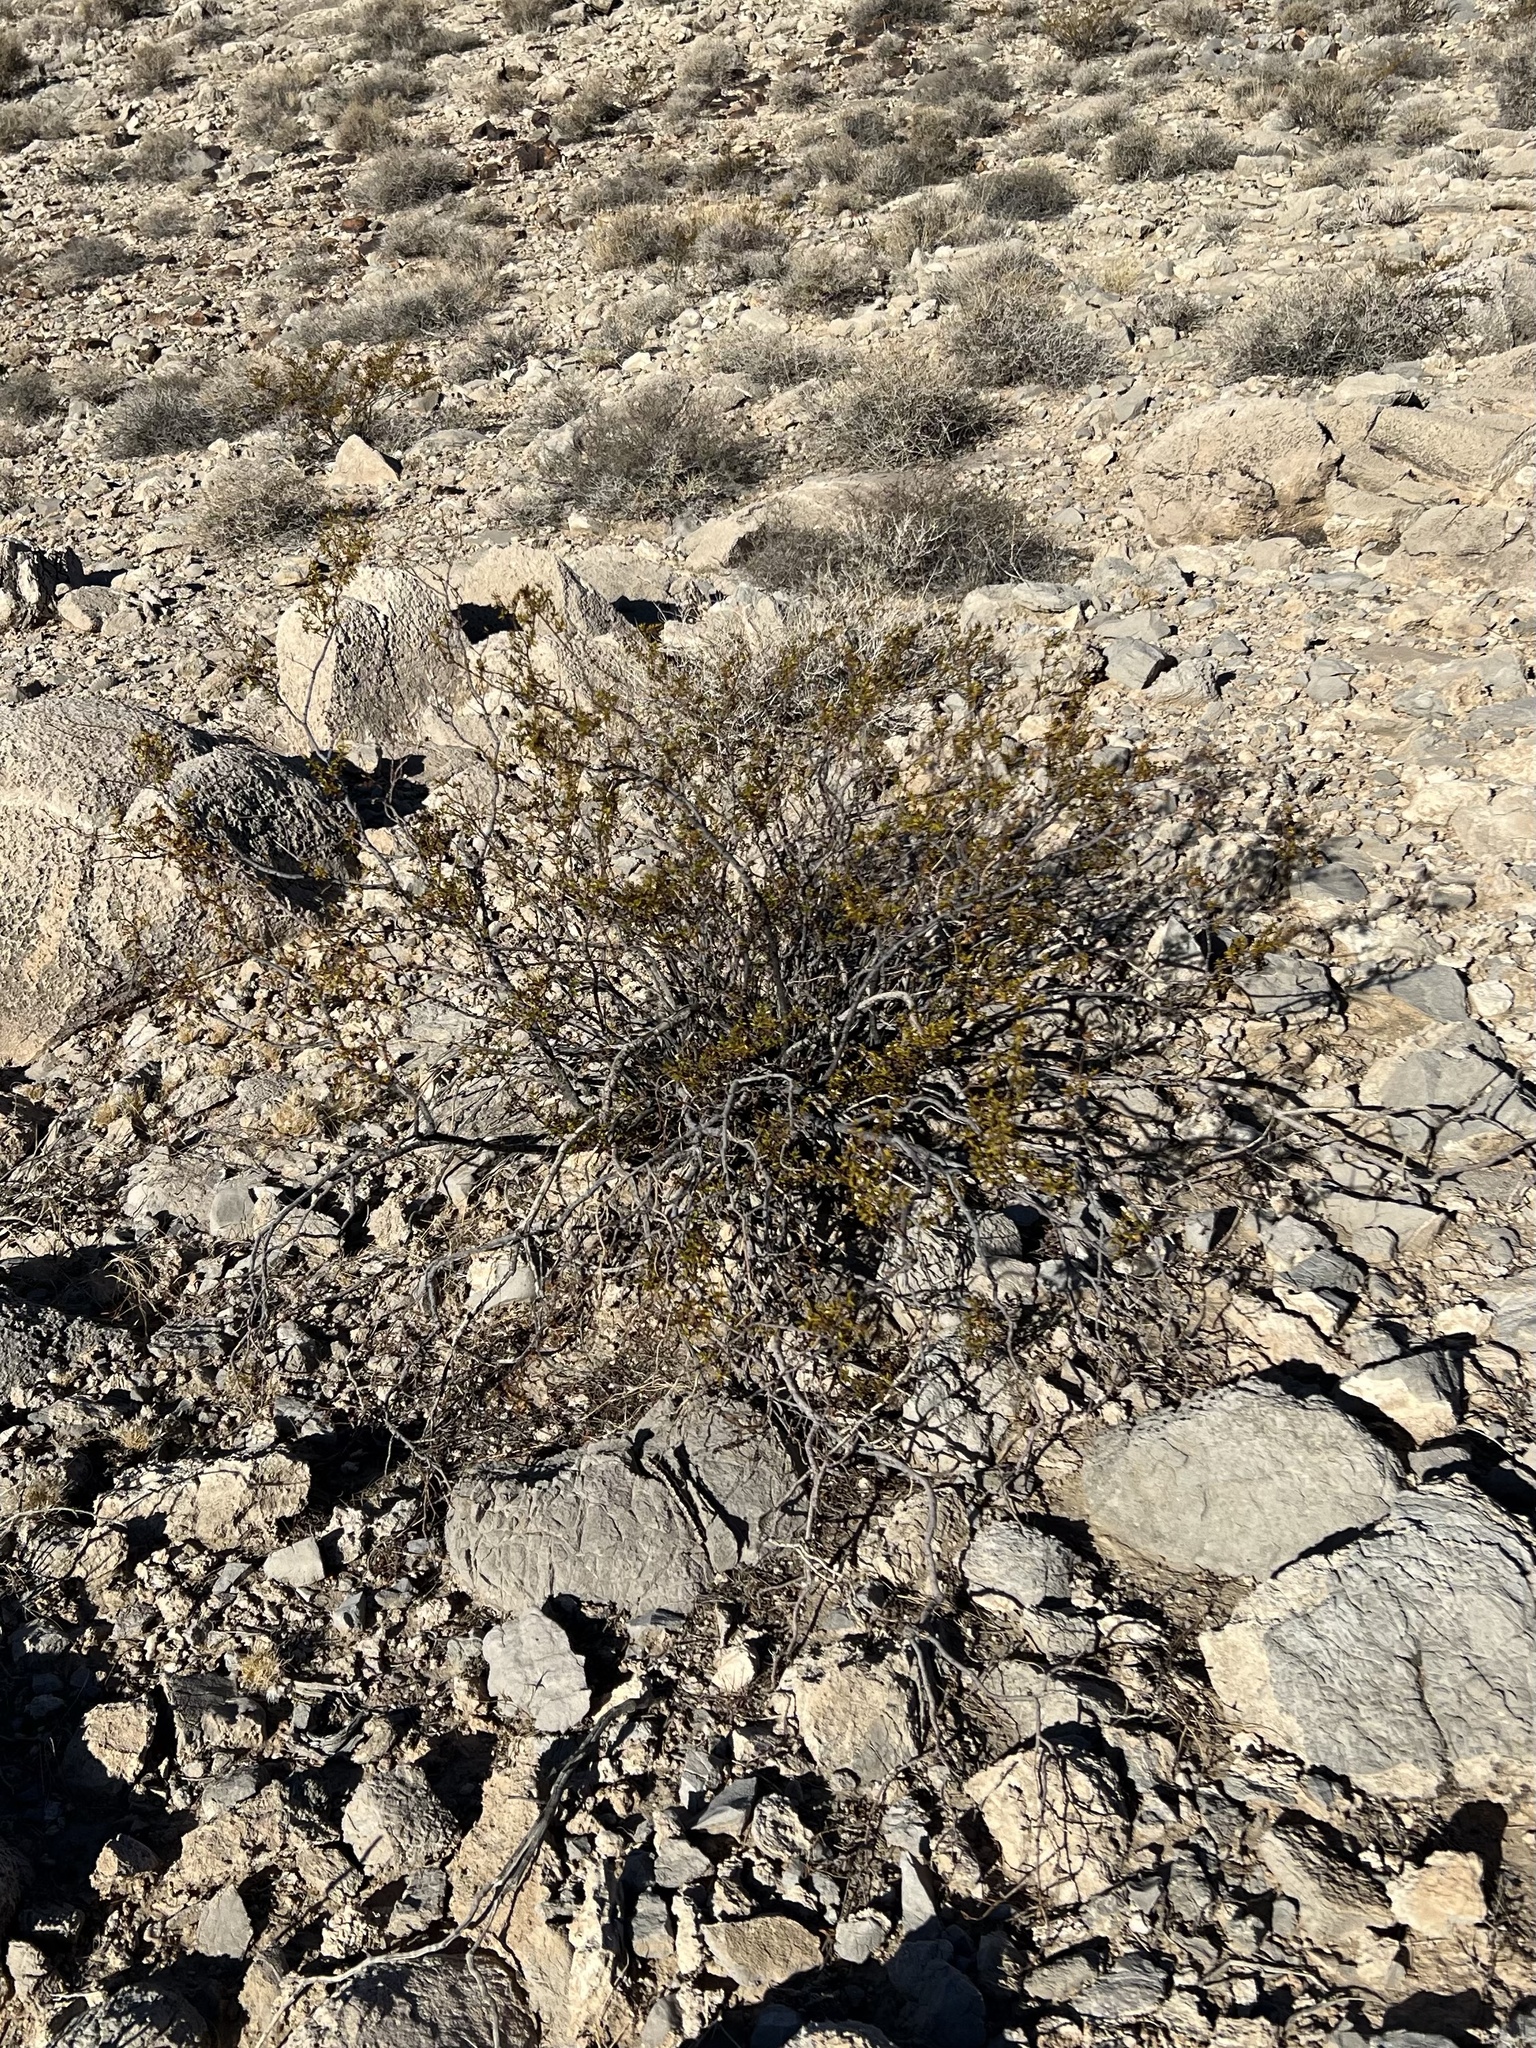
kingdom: Plantae
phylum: Tracheophyta
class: Magnoliopsida
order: Zygophyllales
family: Zygophyllaceae
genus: Larrea
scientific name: Larrea tridentata
